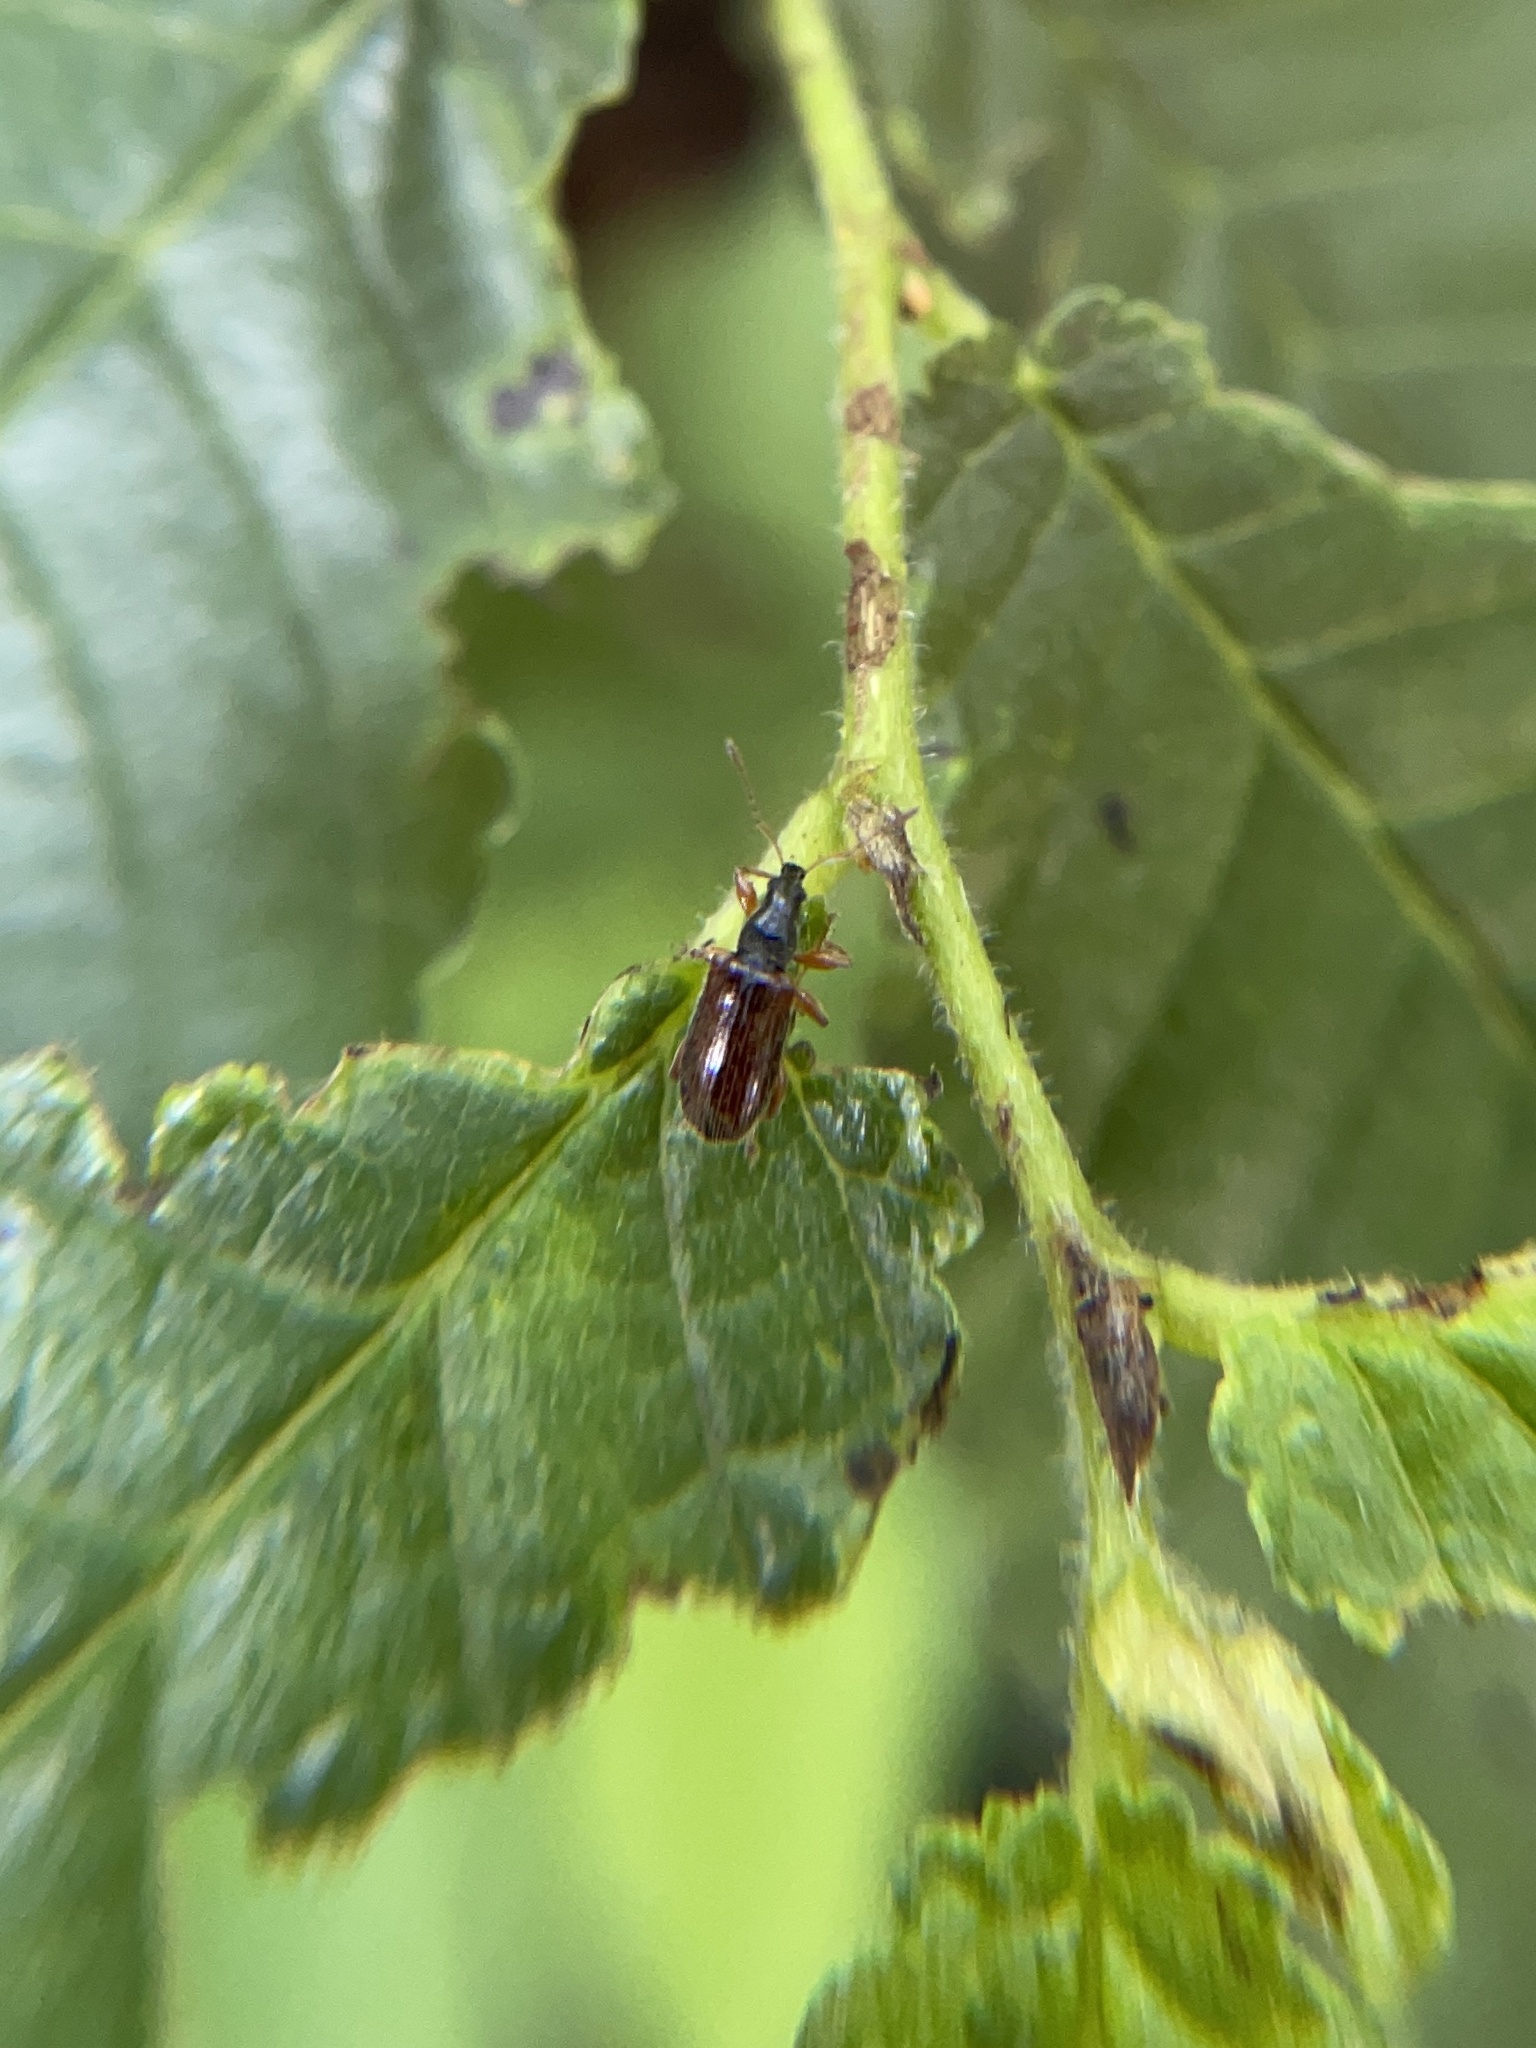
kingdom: Animalia
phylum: Arthropoda
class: Insecta
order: Coleoptera
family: Curculionidae
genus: Phyllobius
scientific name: Phyllobius oblongus
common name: Brown leaf weevil
